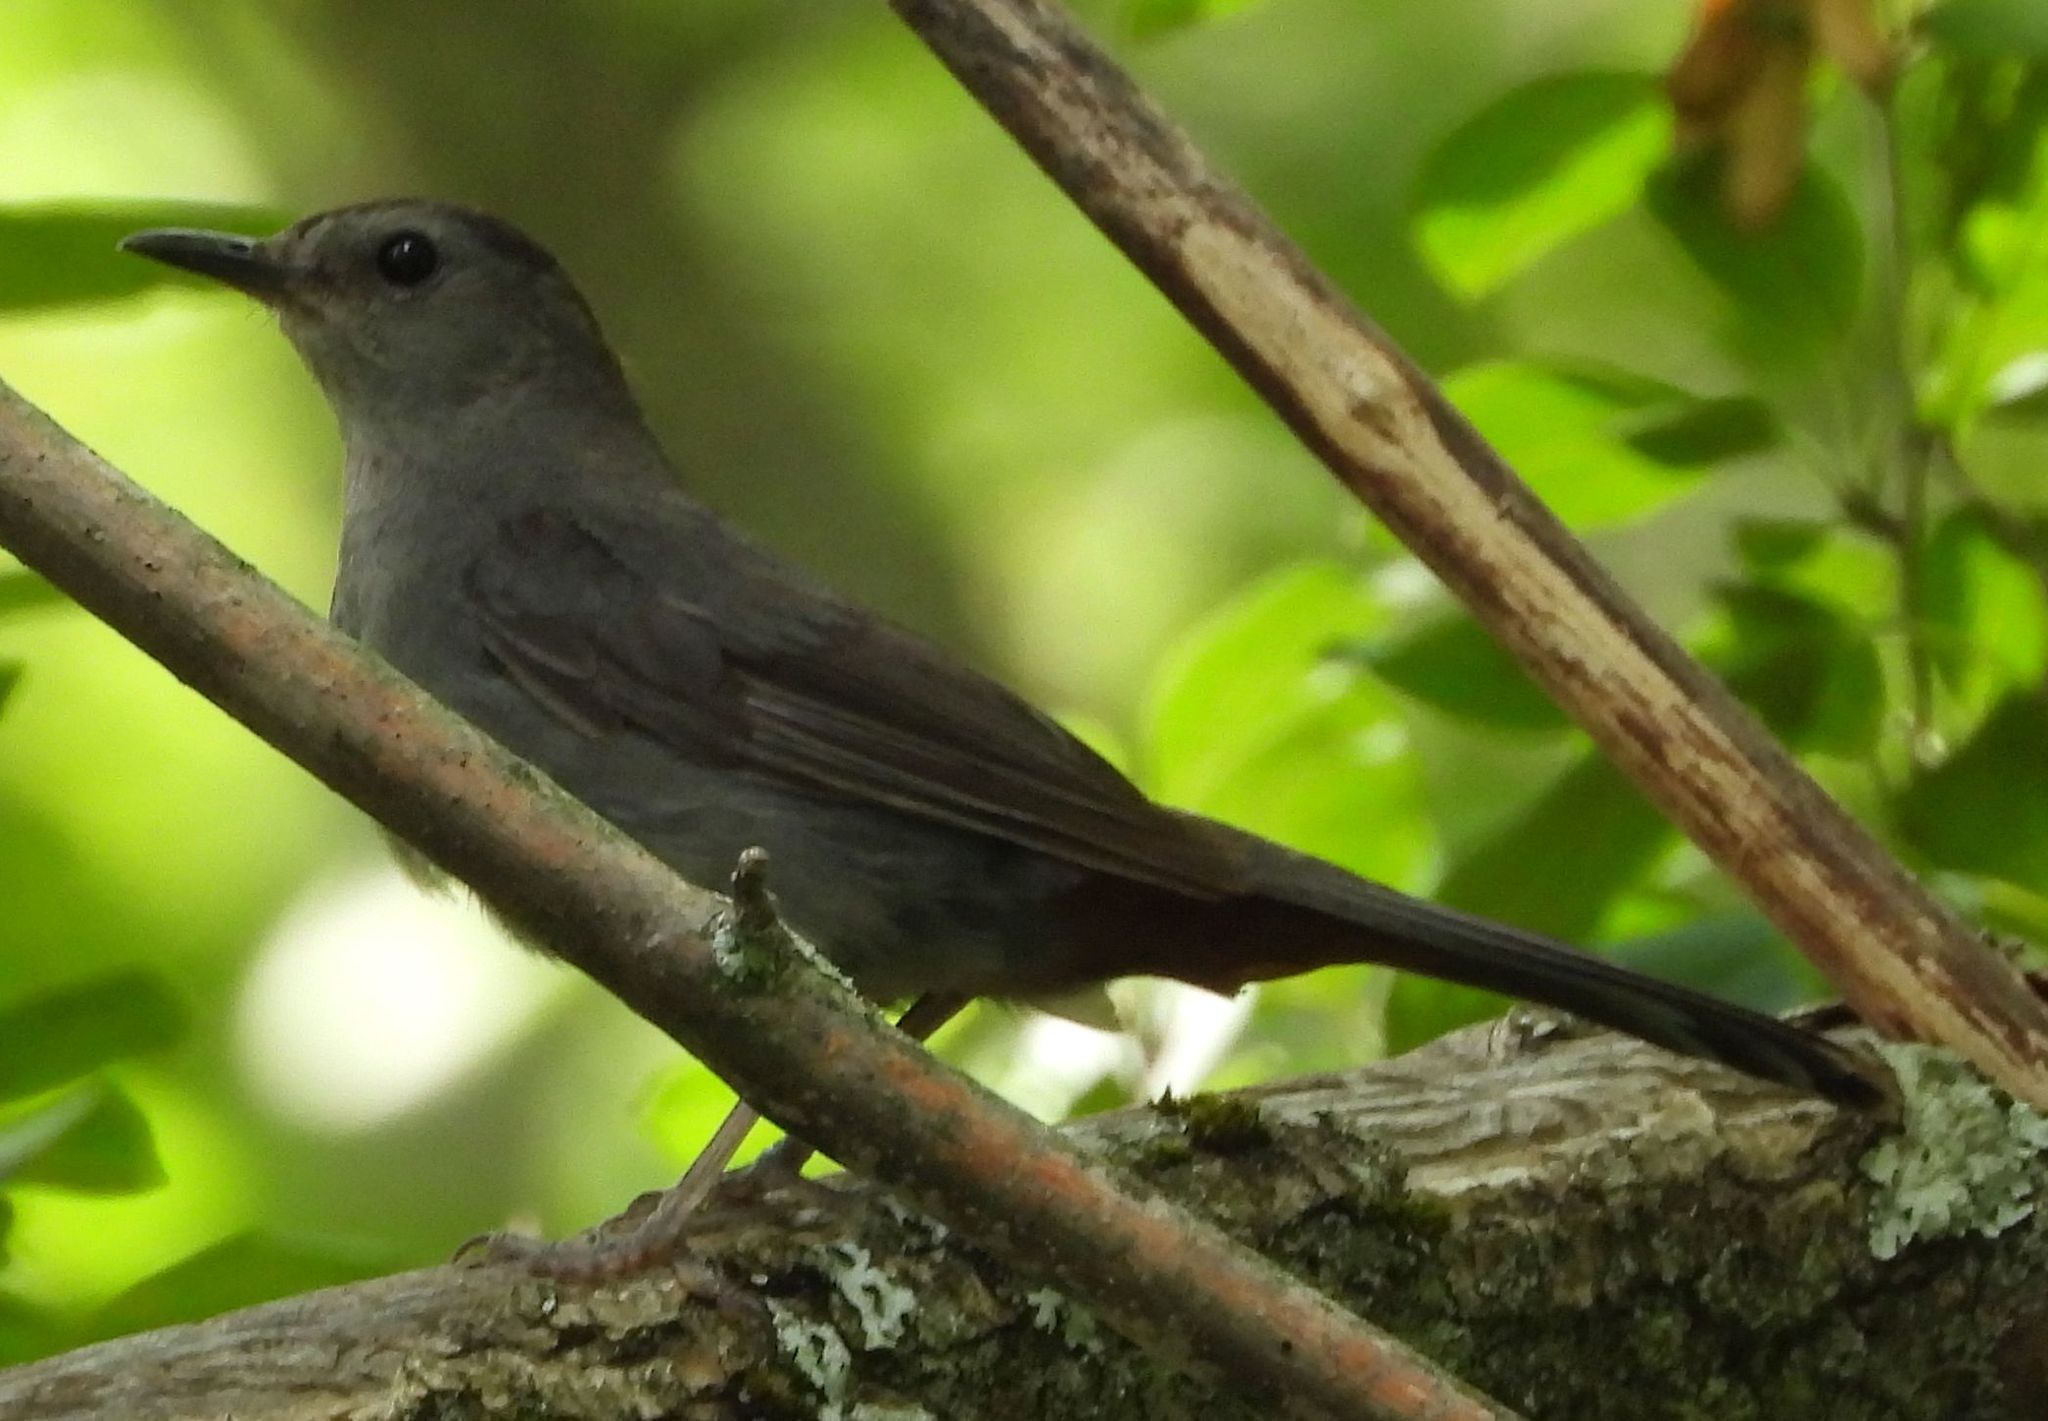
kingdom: Animalia
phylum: Chordata
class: Aves
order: Passeriformes
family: Mimidae
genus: Dumetella
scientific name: Dumetella carolinensis
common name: Gray catbird
